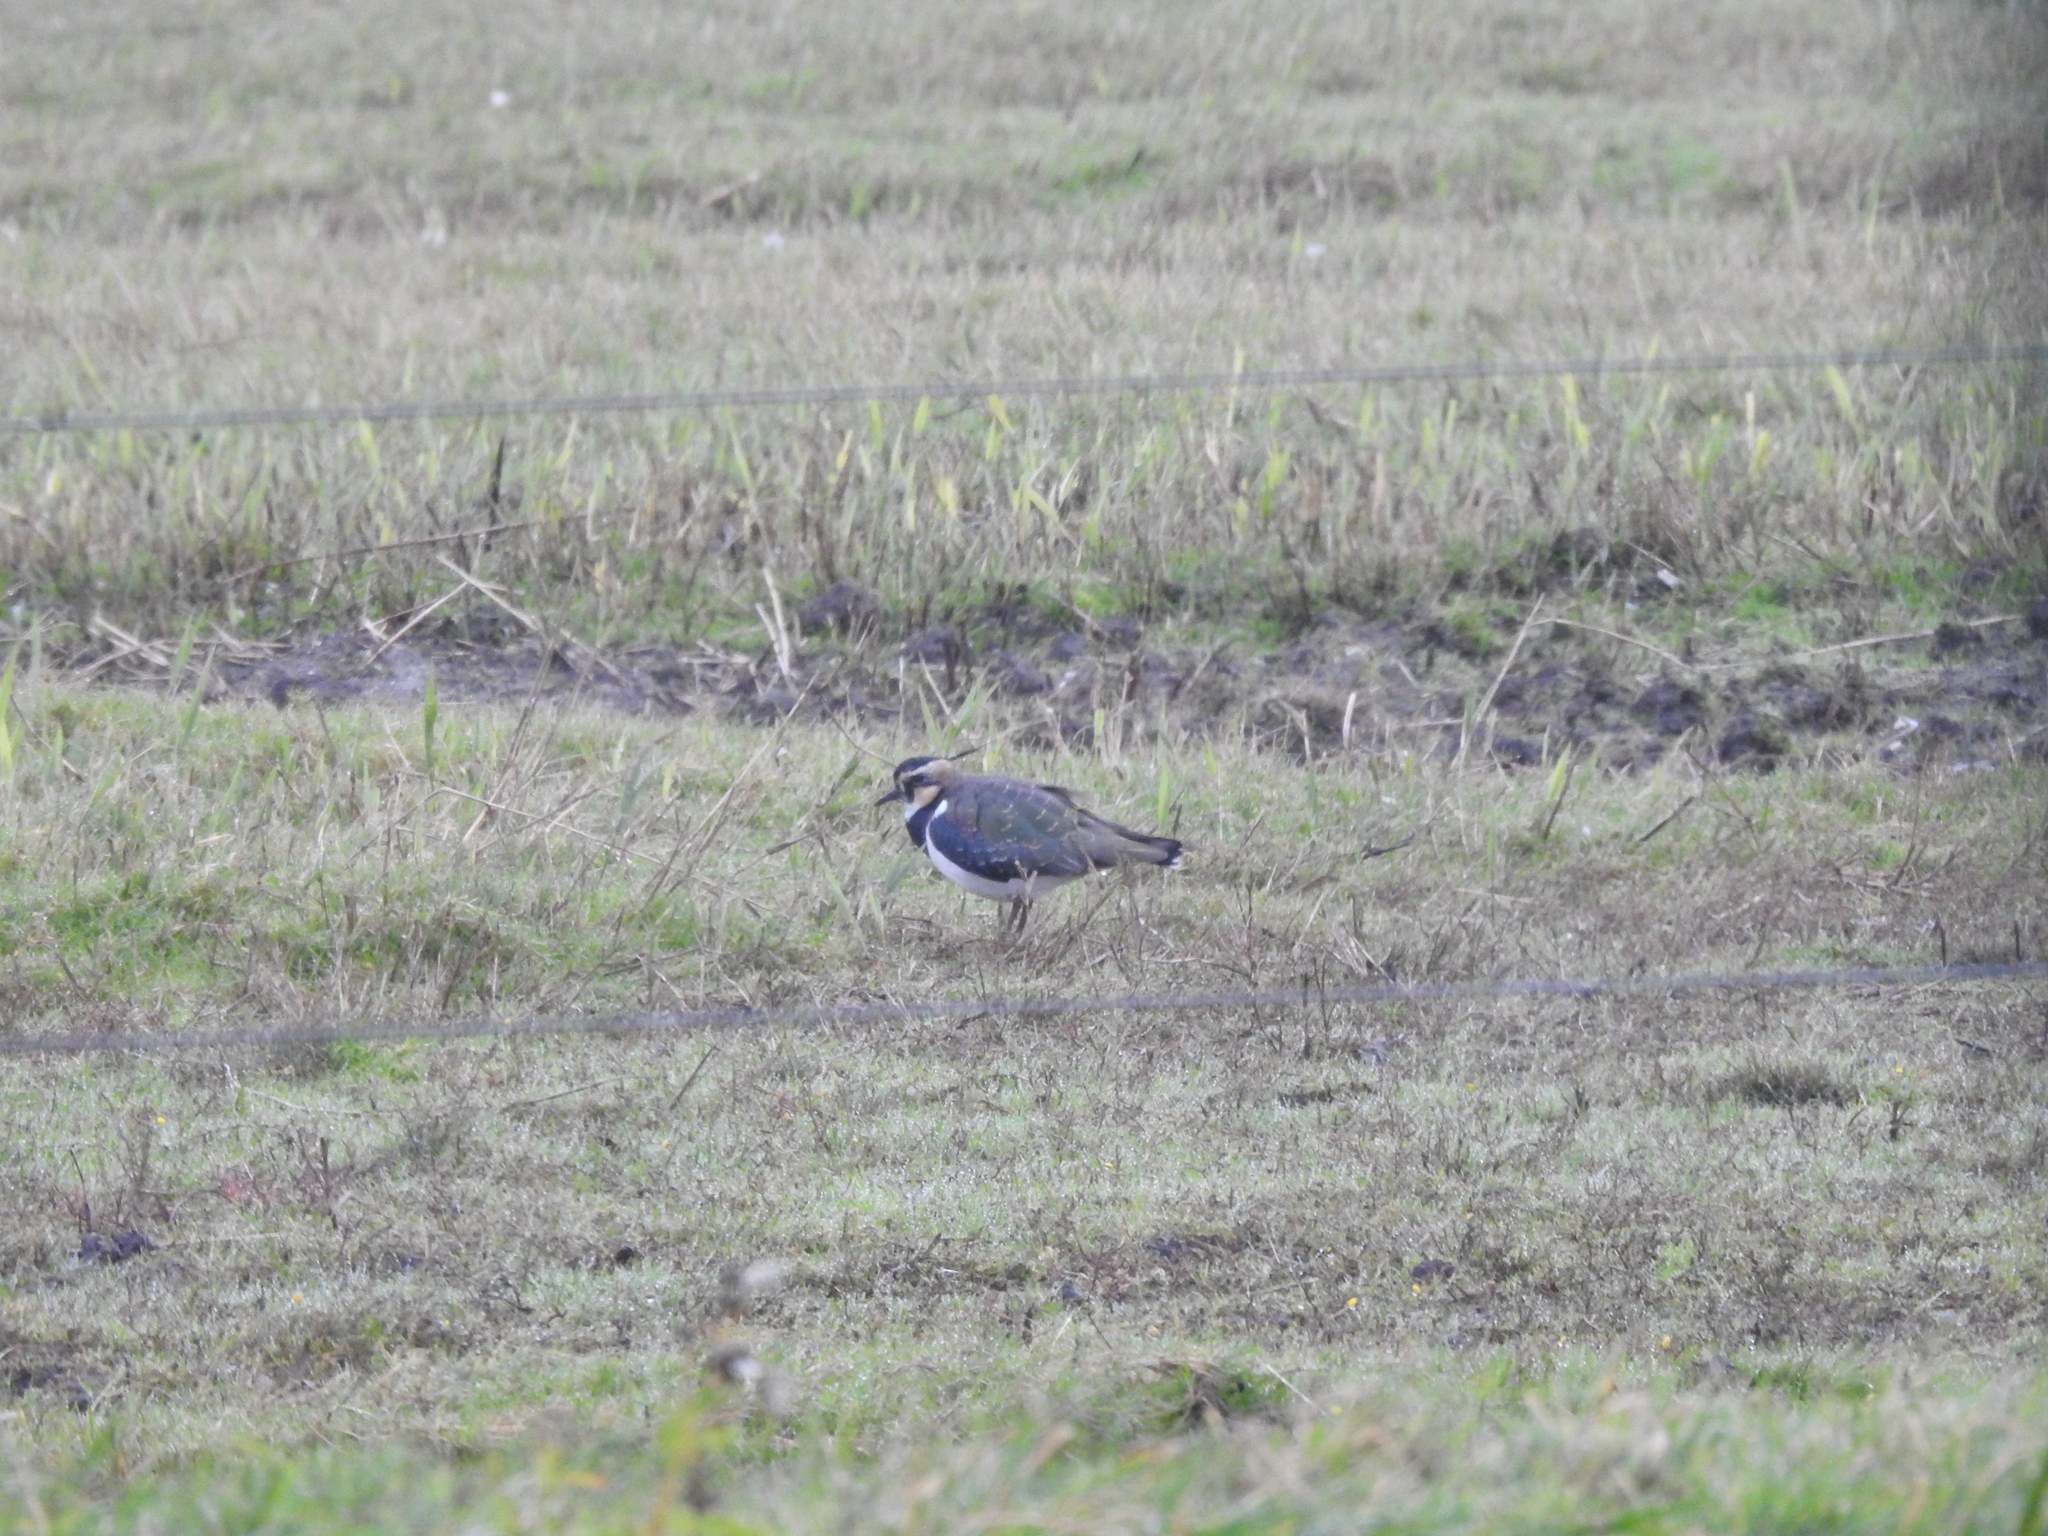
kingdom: Animalia
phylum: Chordata
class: Aves
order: Charadriiformes
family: Charadriidae
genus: Vanellus
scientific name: Vanellus vanellus
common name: Northern lapwing
